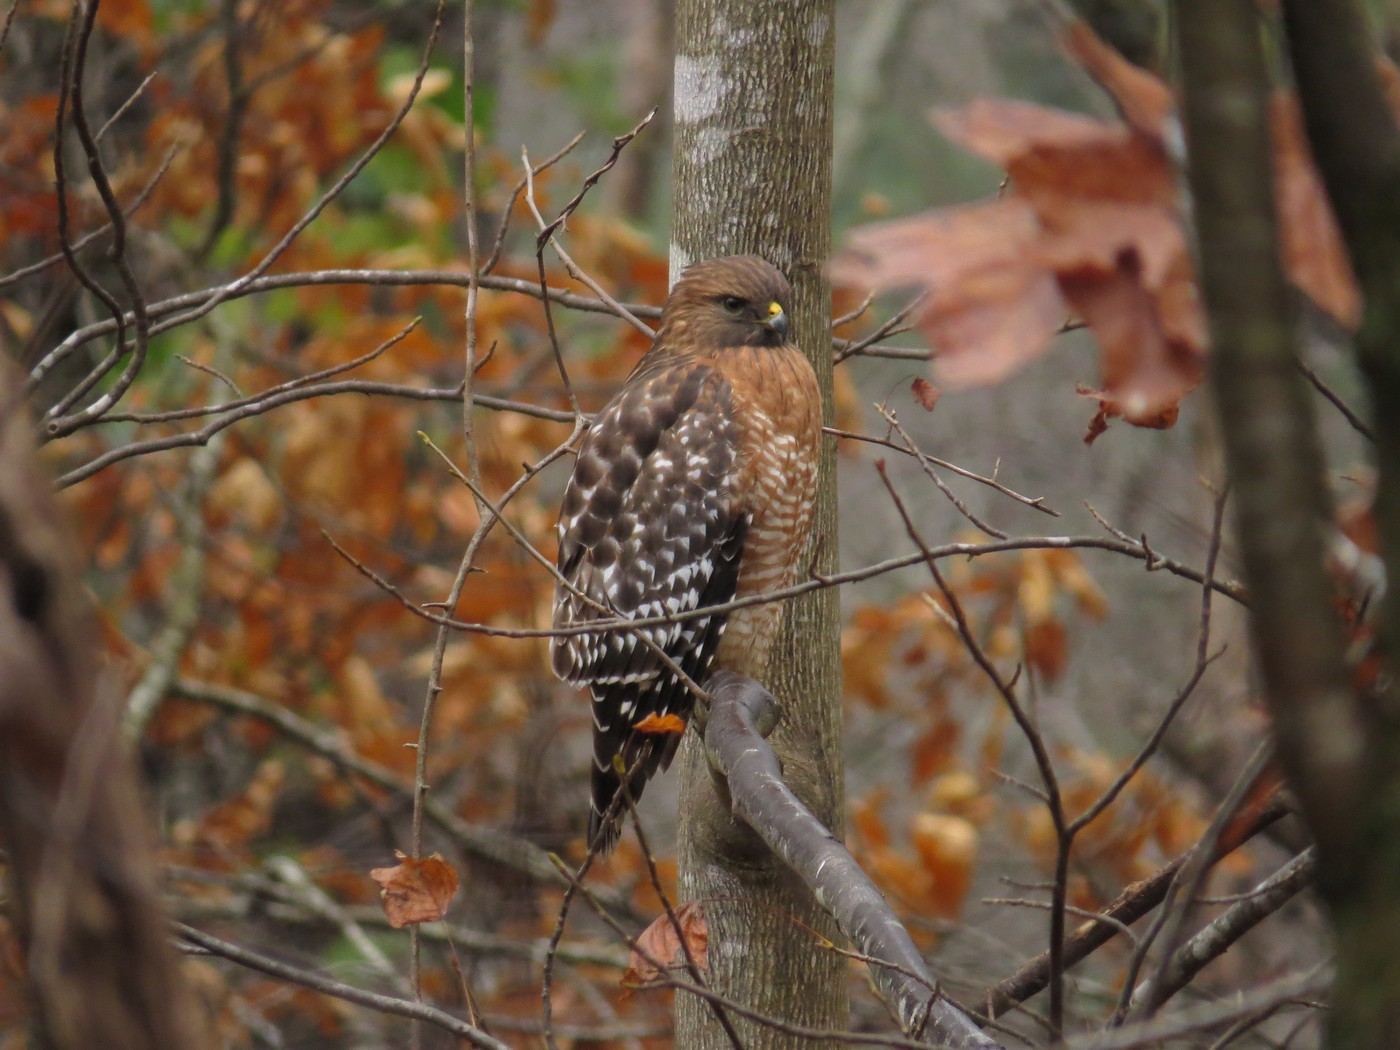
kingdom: Animalia
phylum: Chordata
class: Aves
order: Accipitriformes
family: Accipitridae
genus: Buteo
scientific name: Buteo lineatus
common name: Red-shouldered hawk
